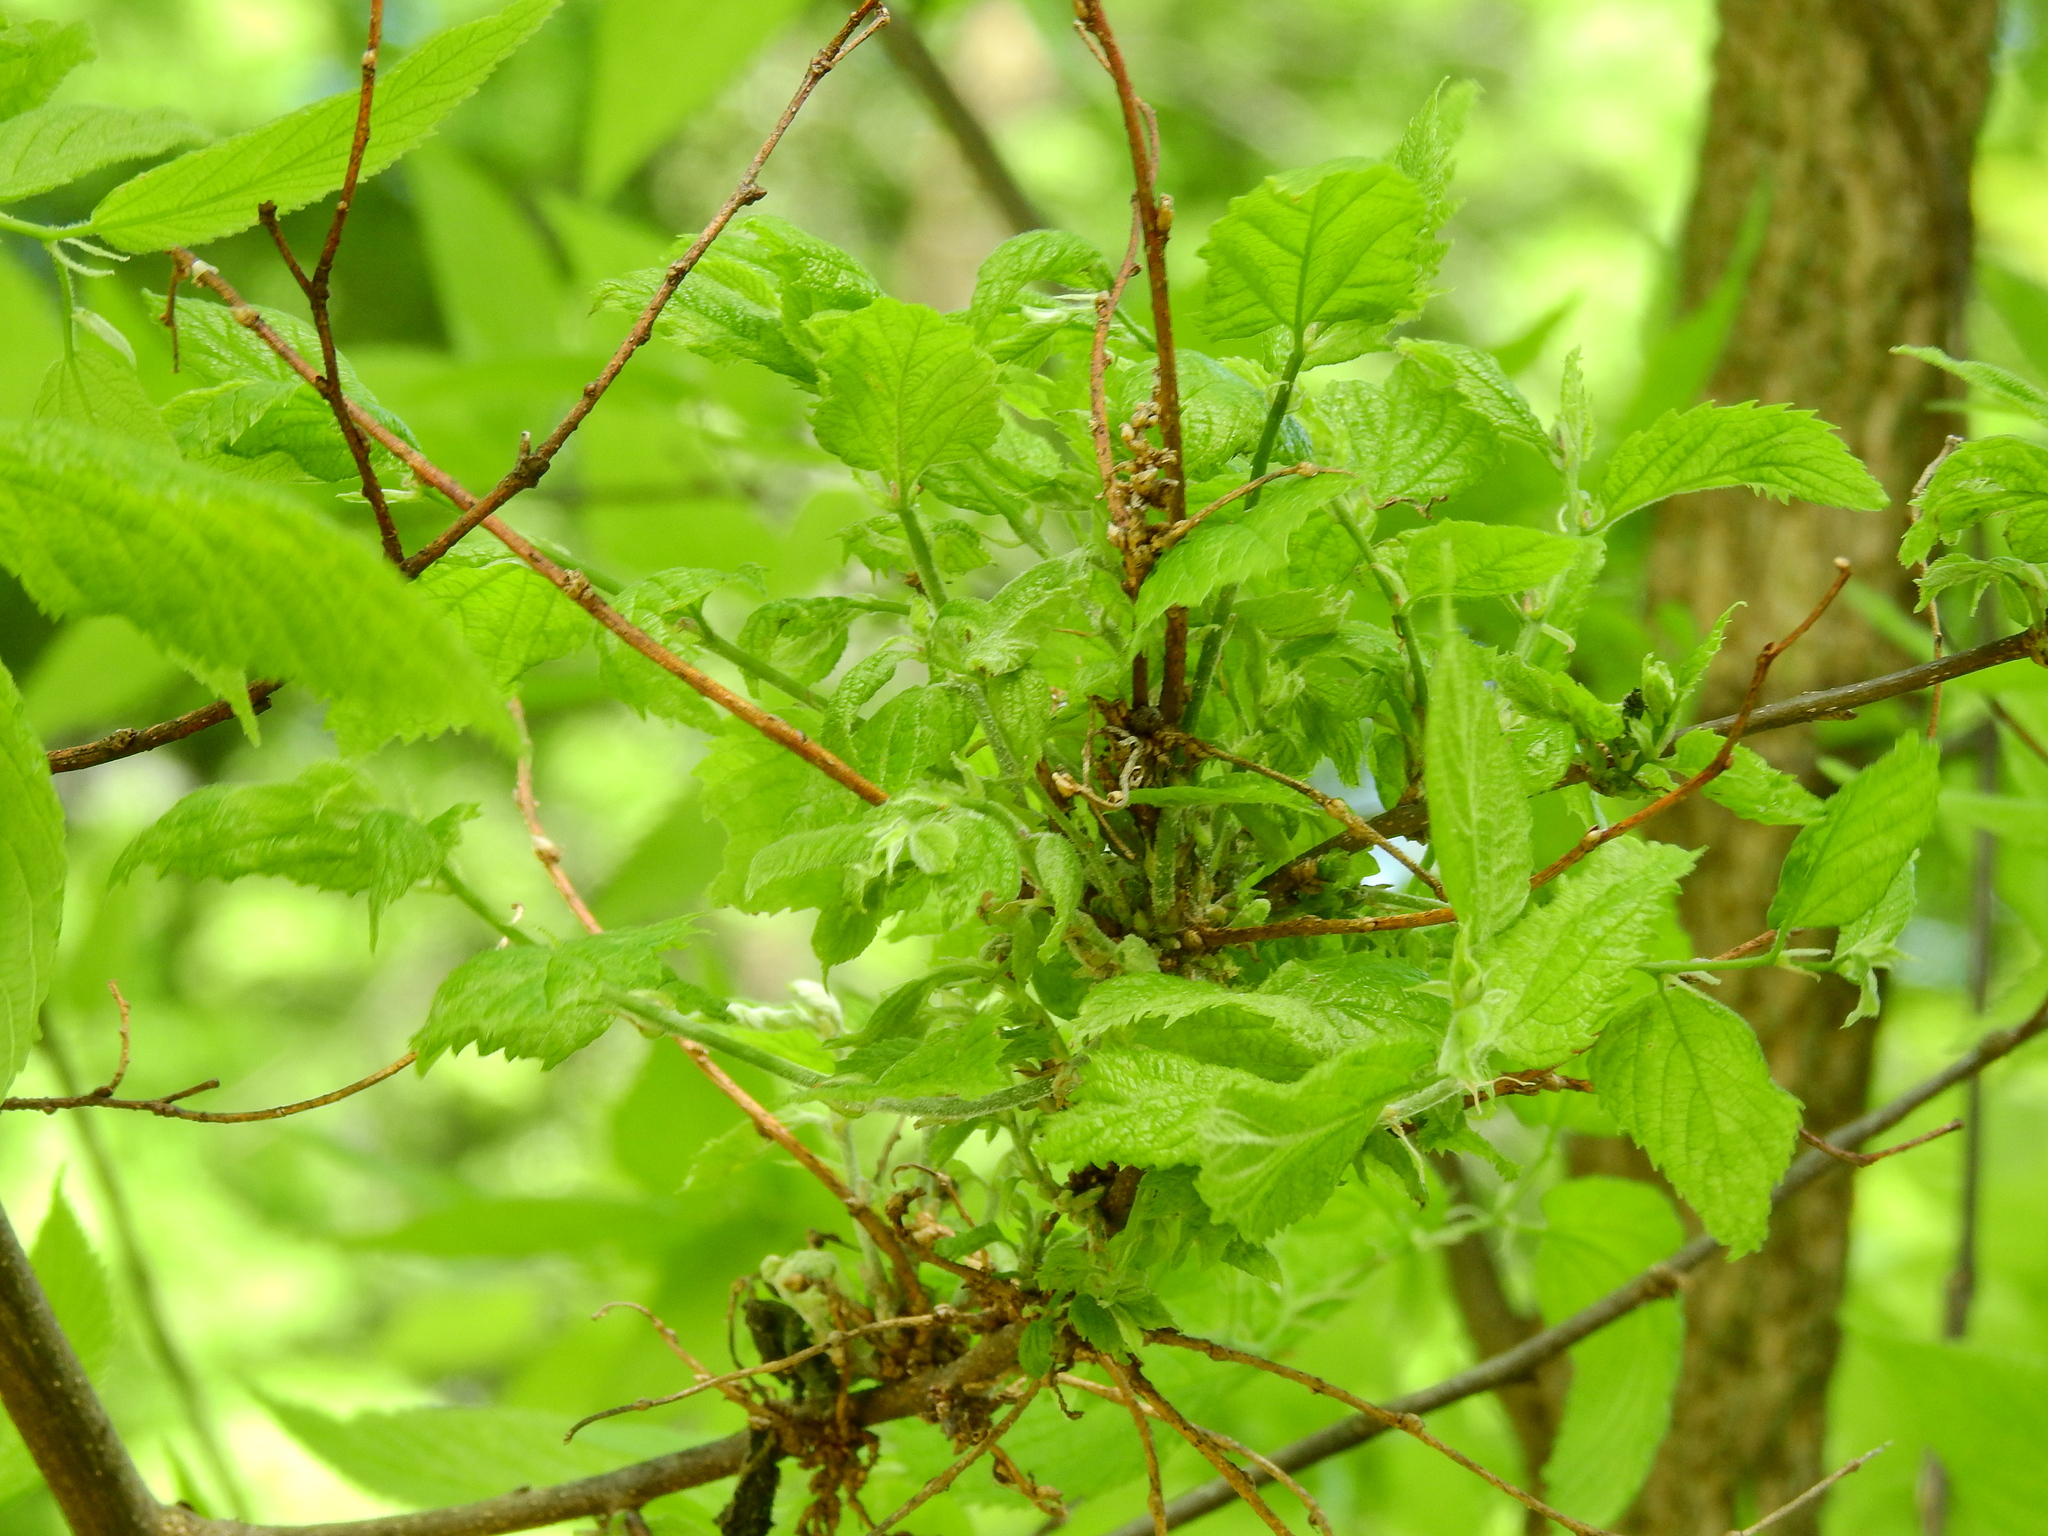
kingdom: Animalia
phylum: Arthropoda
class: Arachnida
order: Trombidiformes
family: Eriophyidae
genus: Aceria
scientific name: Aceria
